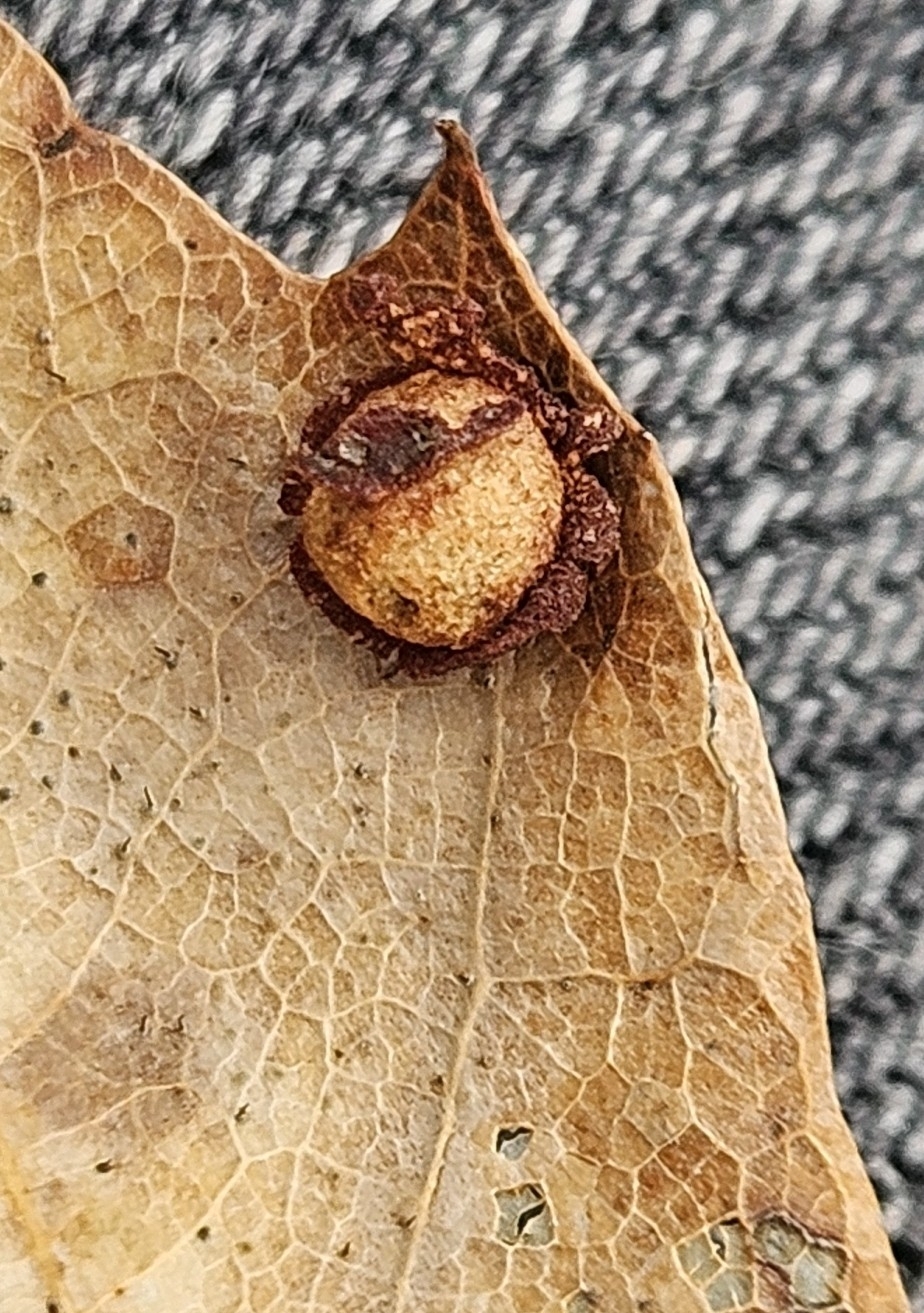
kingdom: Animalia
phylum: Arthropoda
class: Insecta
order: Diptera
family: Cecidomyiidae
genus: Polystepha
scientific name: Polystepha pilulae
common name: Oak leaf gall midge
